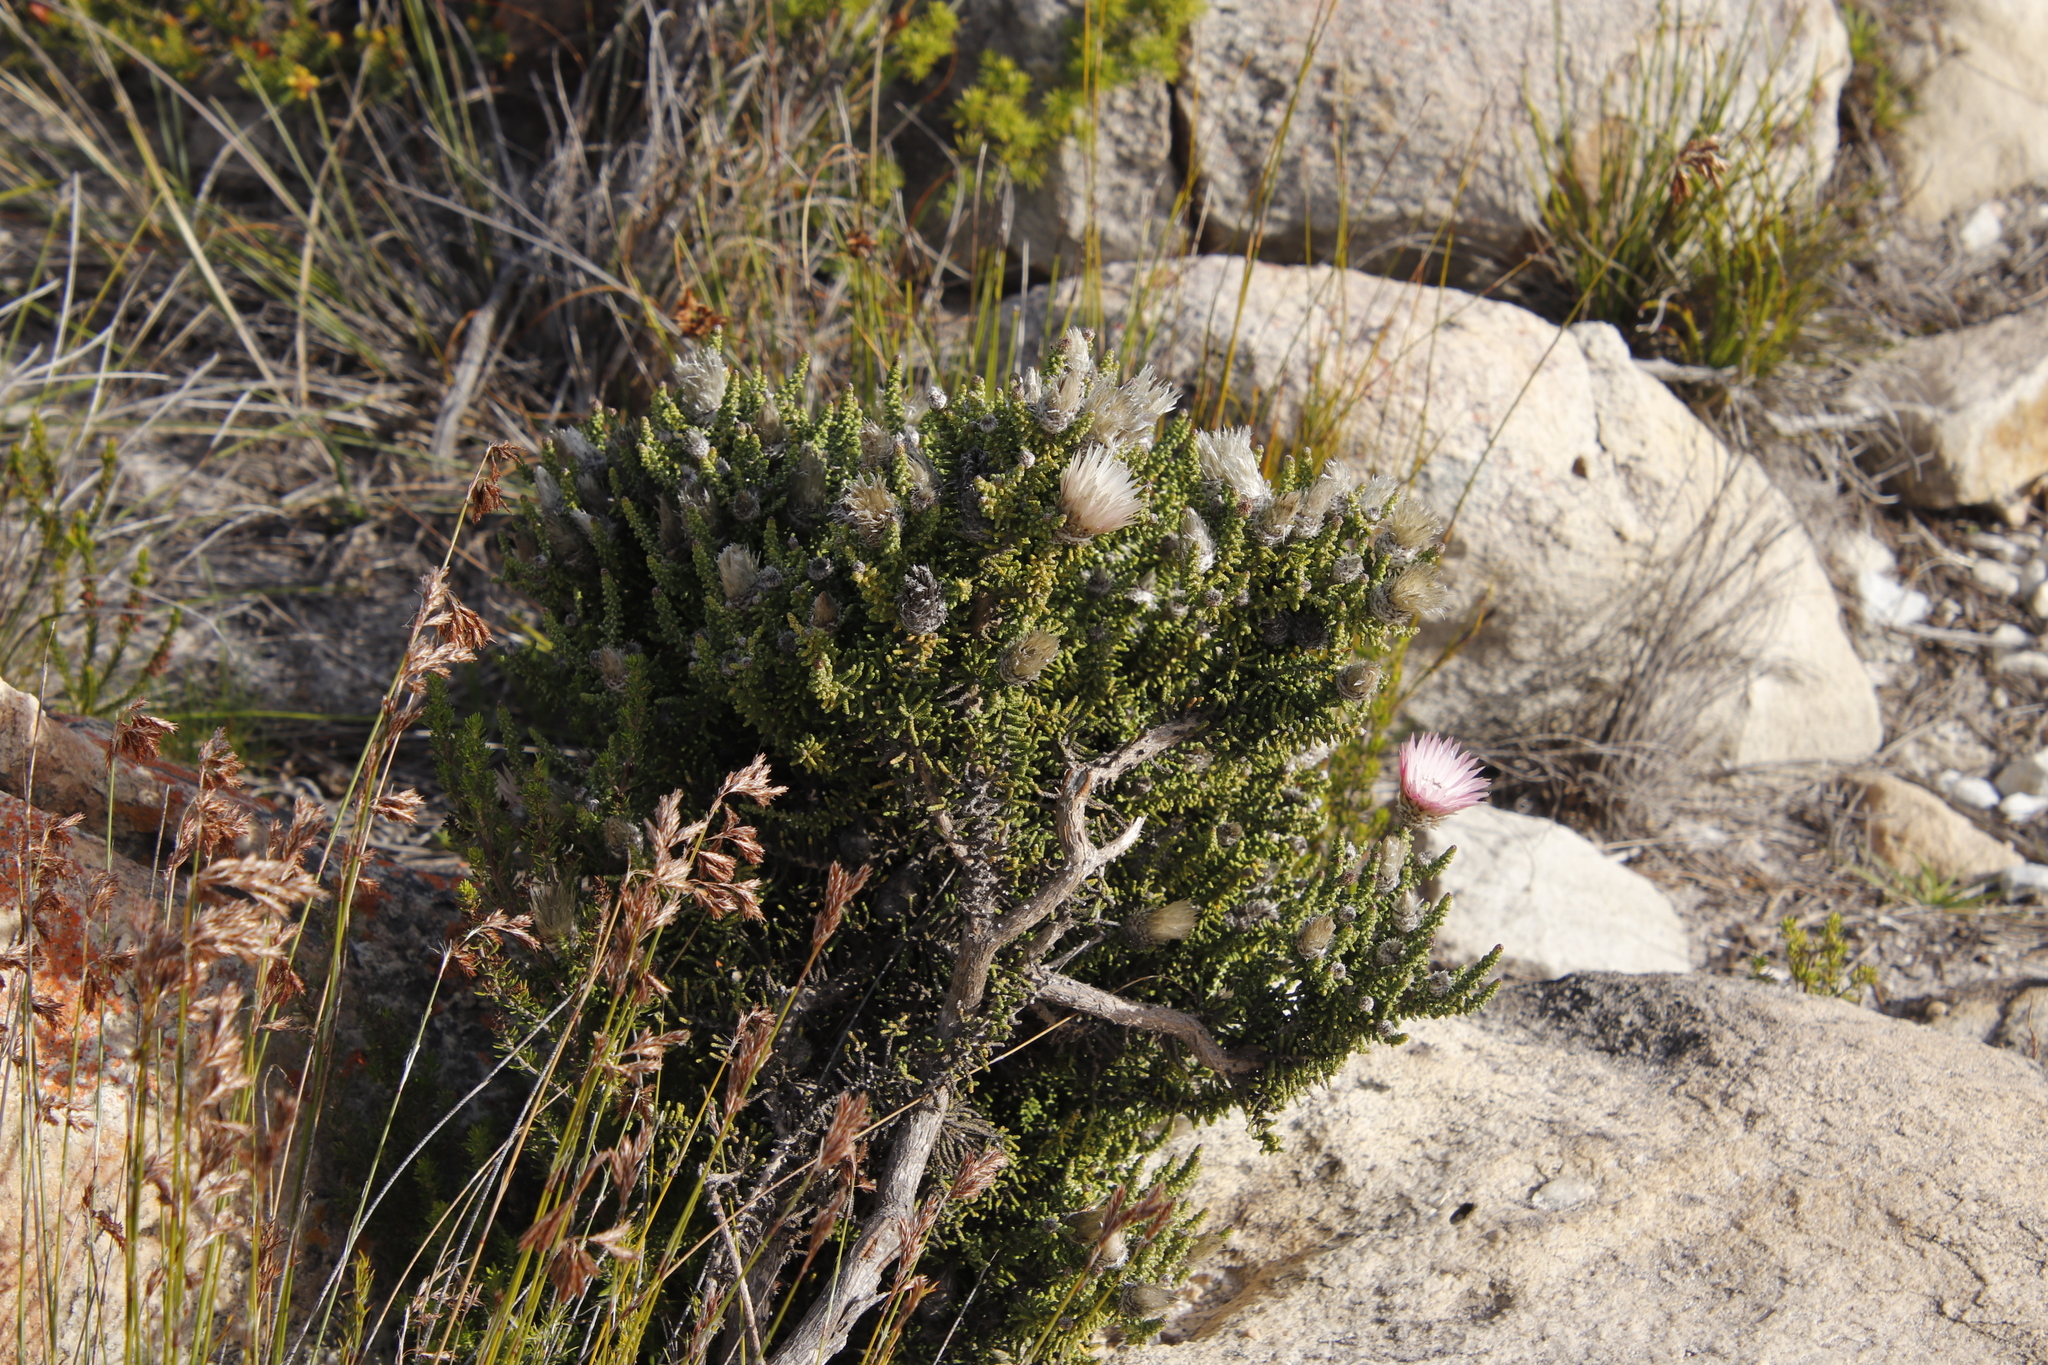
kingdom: Plantae
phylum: Tracheophyta
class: Magnoliopsida
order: Asterales
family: Asteraceae
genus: Phaenocoma
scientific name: Phaenocoma prolifera
